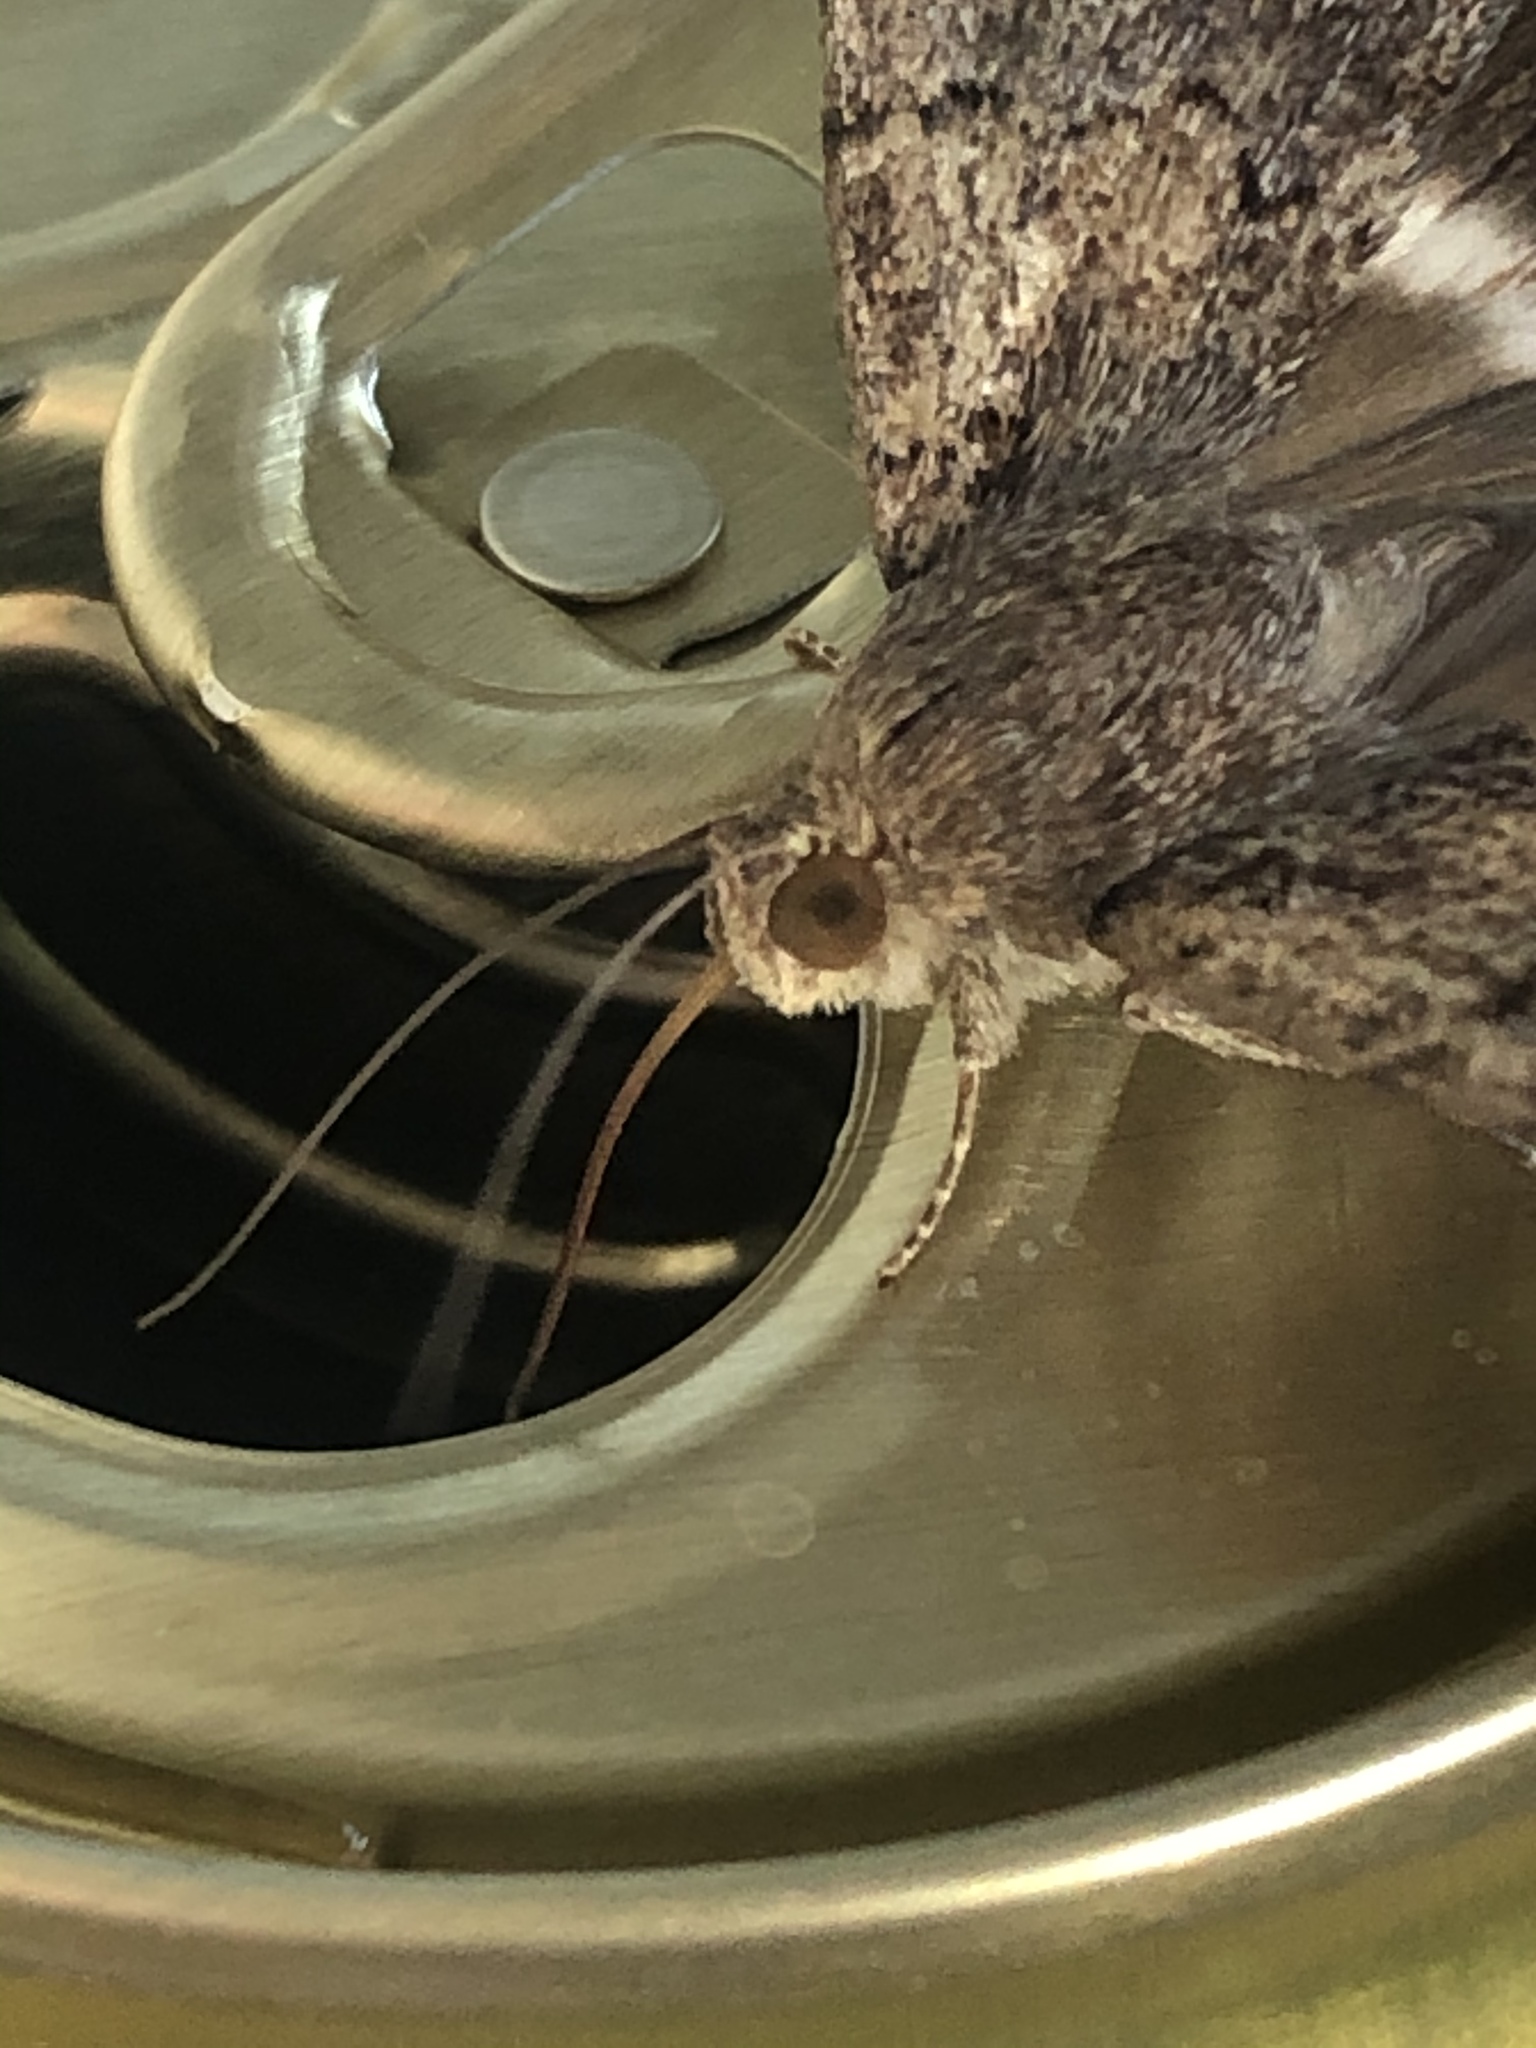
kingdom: Animalia
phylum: Arthropoda
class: Insecta
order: Lepidoptera
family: Erebidae
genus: Achaea
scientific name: Achaea catella
